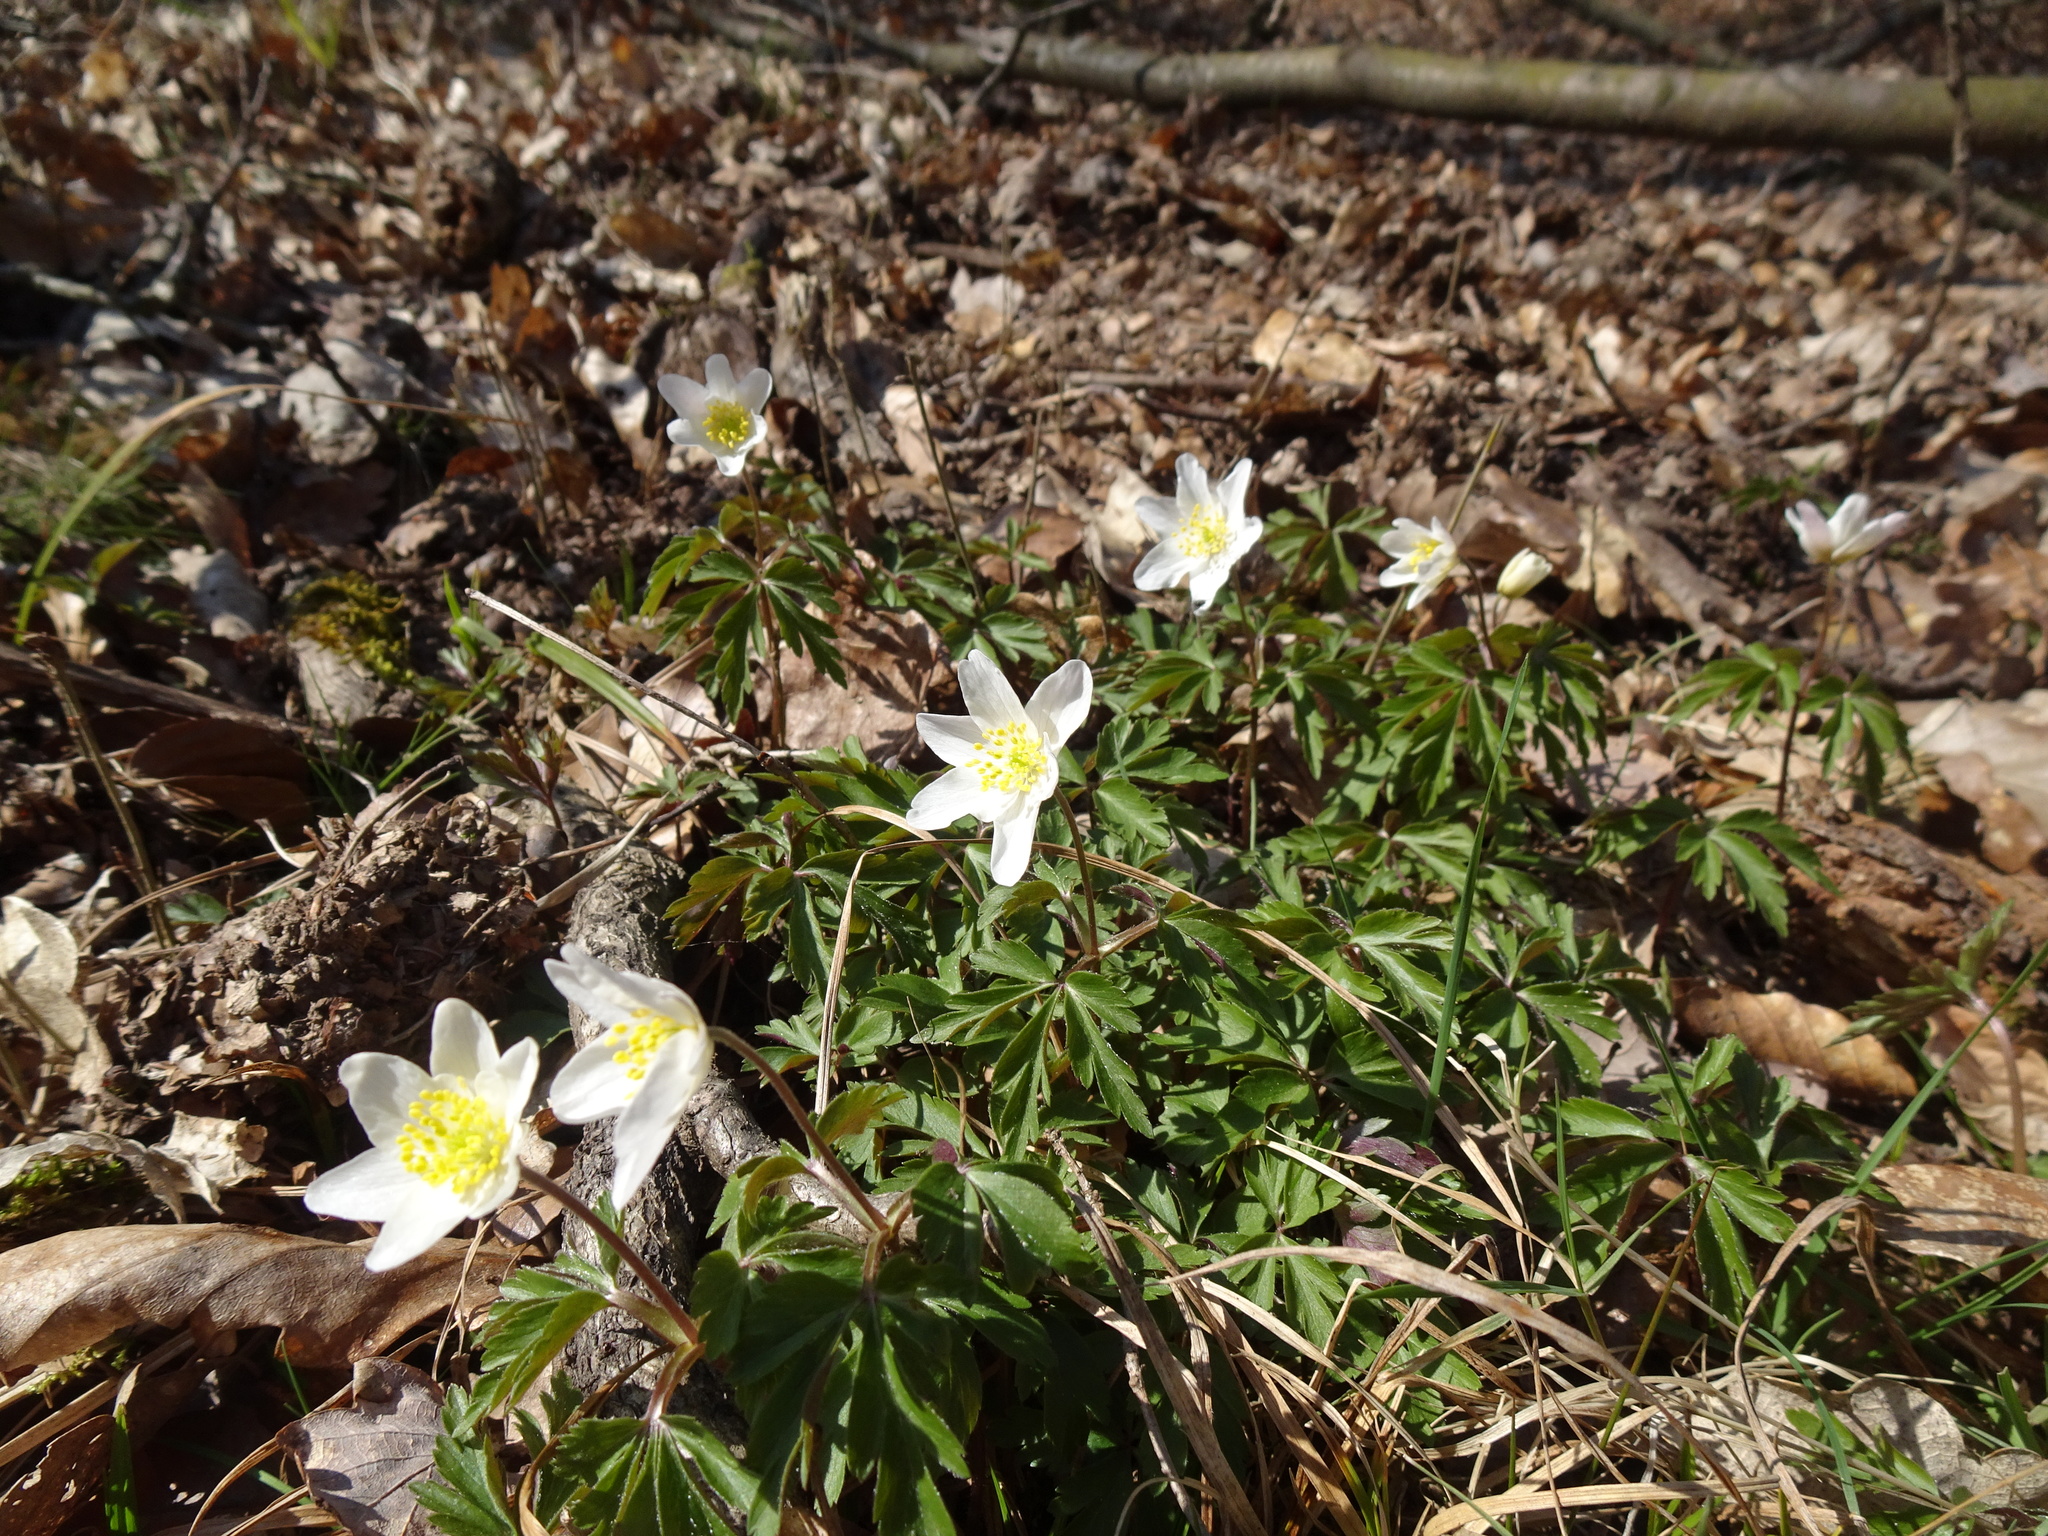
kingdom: Plantae
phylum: Tracheophyta
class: Magnoliopsida
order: Ranunculales
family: Ranunculaceae
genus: Anemone
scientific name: Anemone nemorosa
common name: Wood anemone
